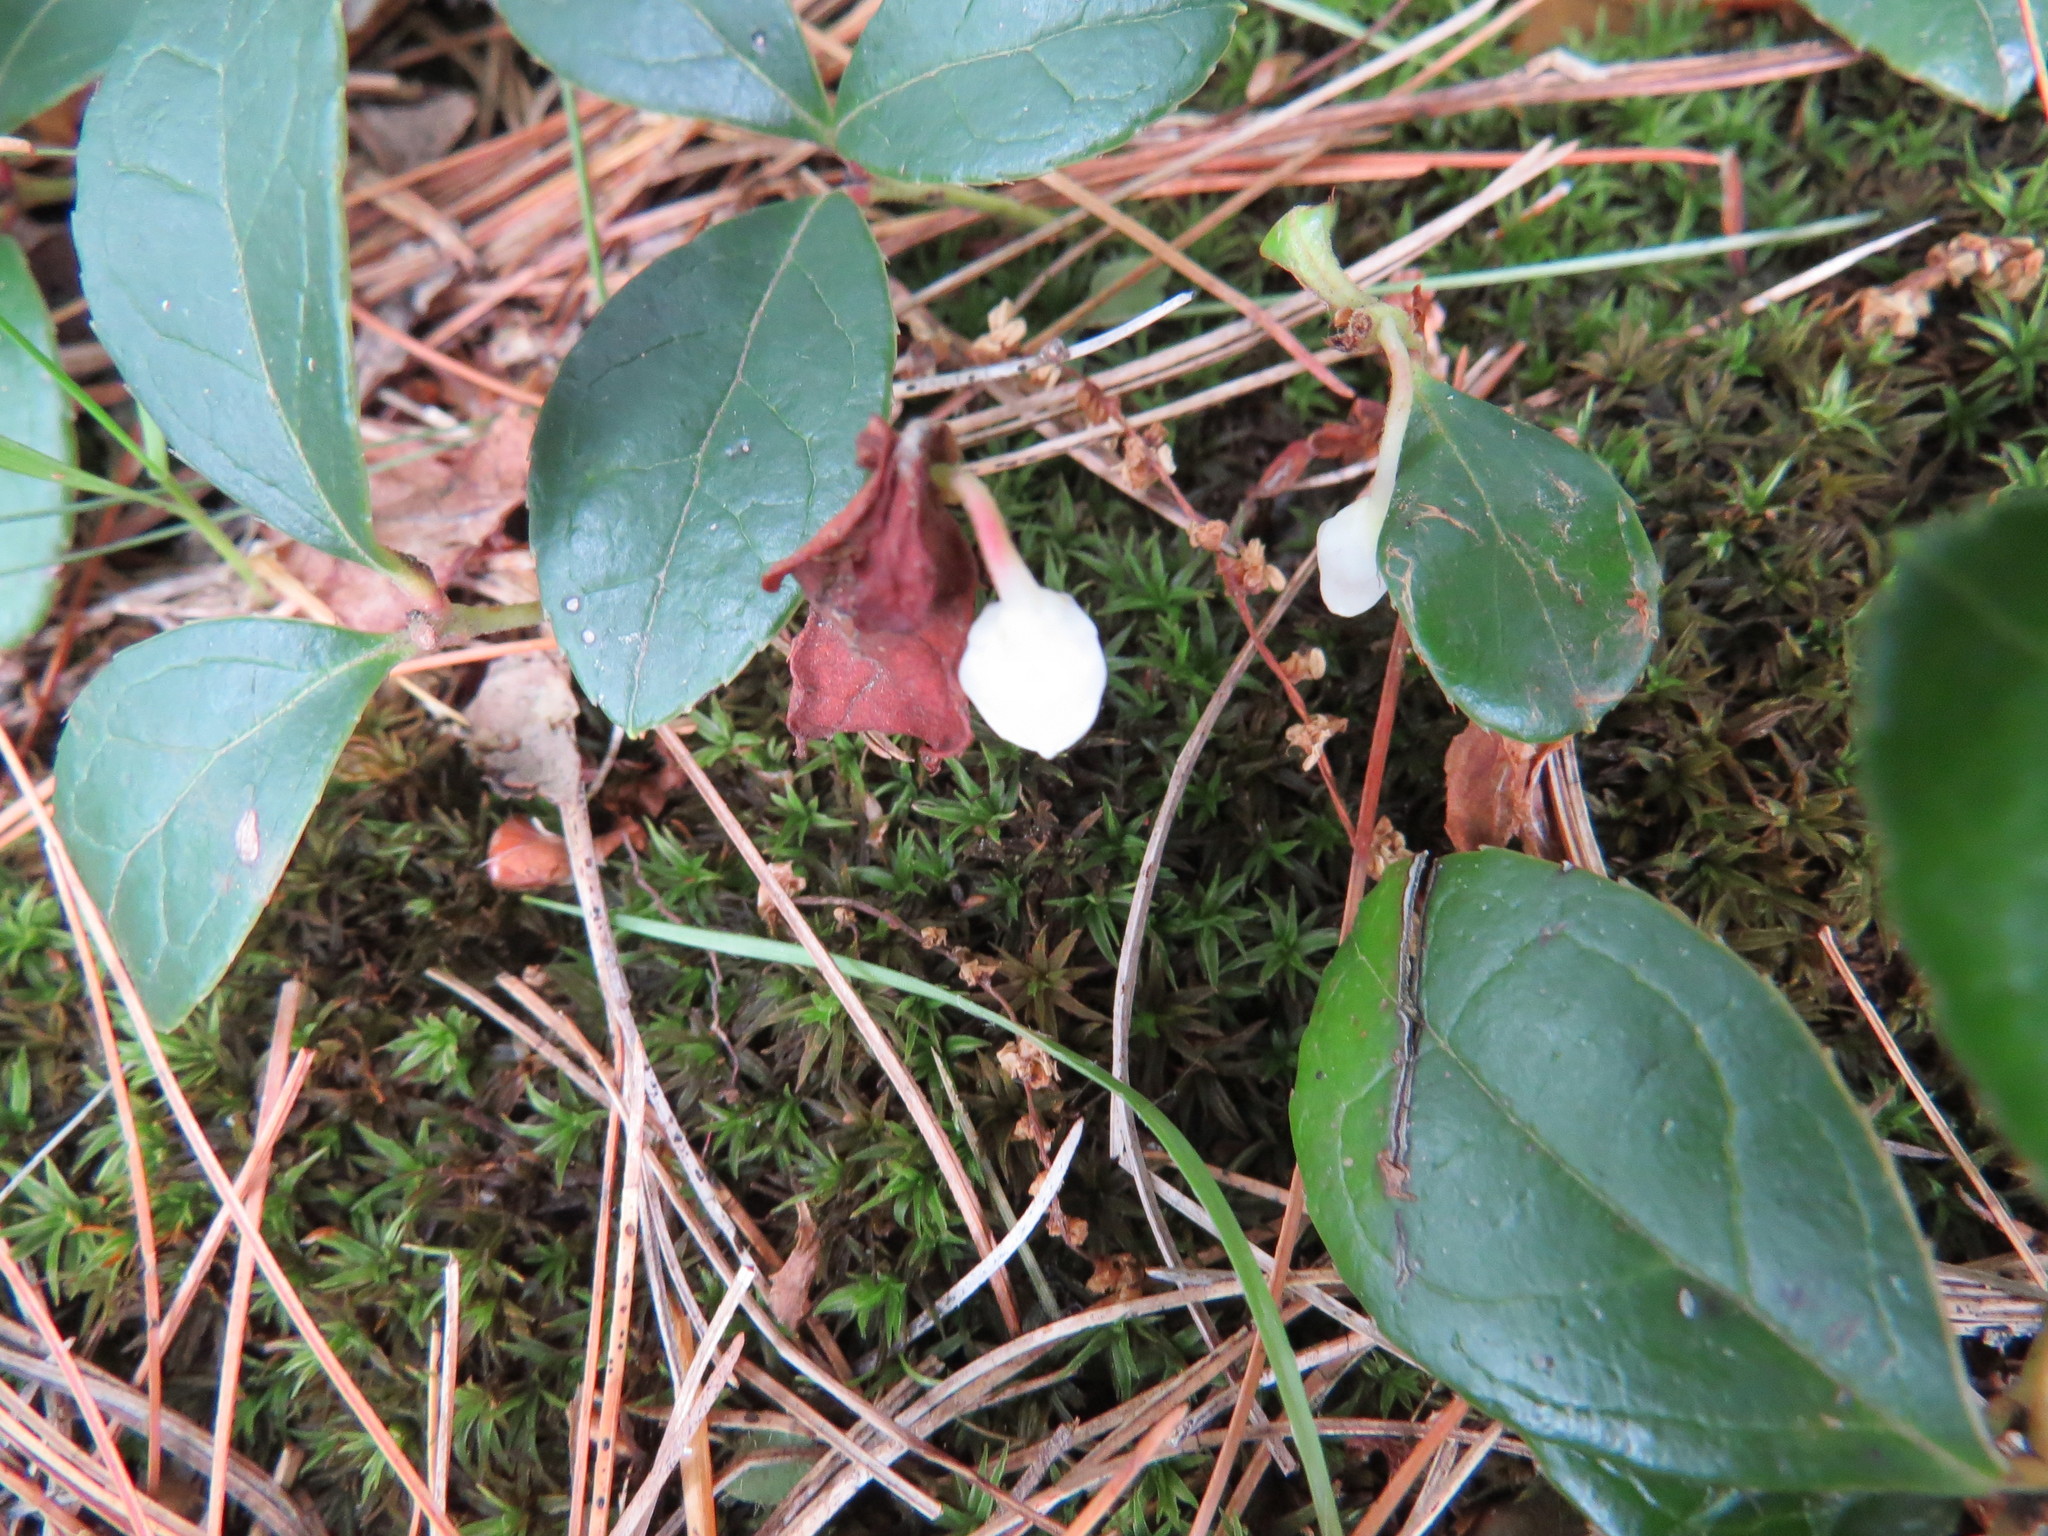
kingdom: Plantae
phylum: Tracheophyta
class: Magnoliopsida
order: Ericales
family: Ericaceae
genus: Gaultheria
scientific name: Gaultheria procumbens
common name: Checkerberry
